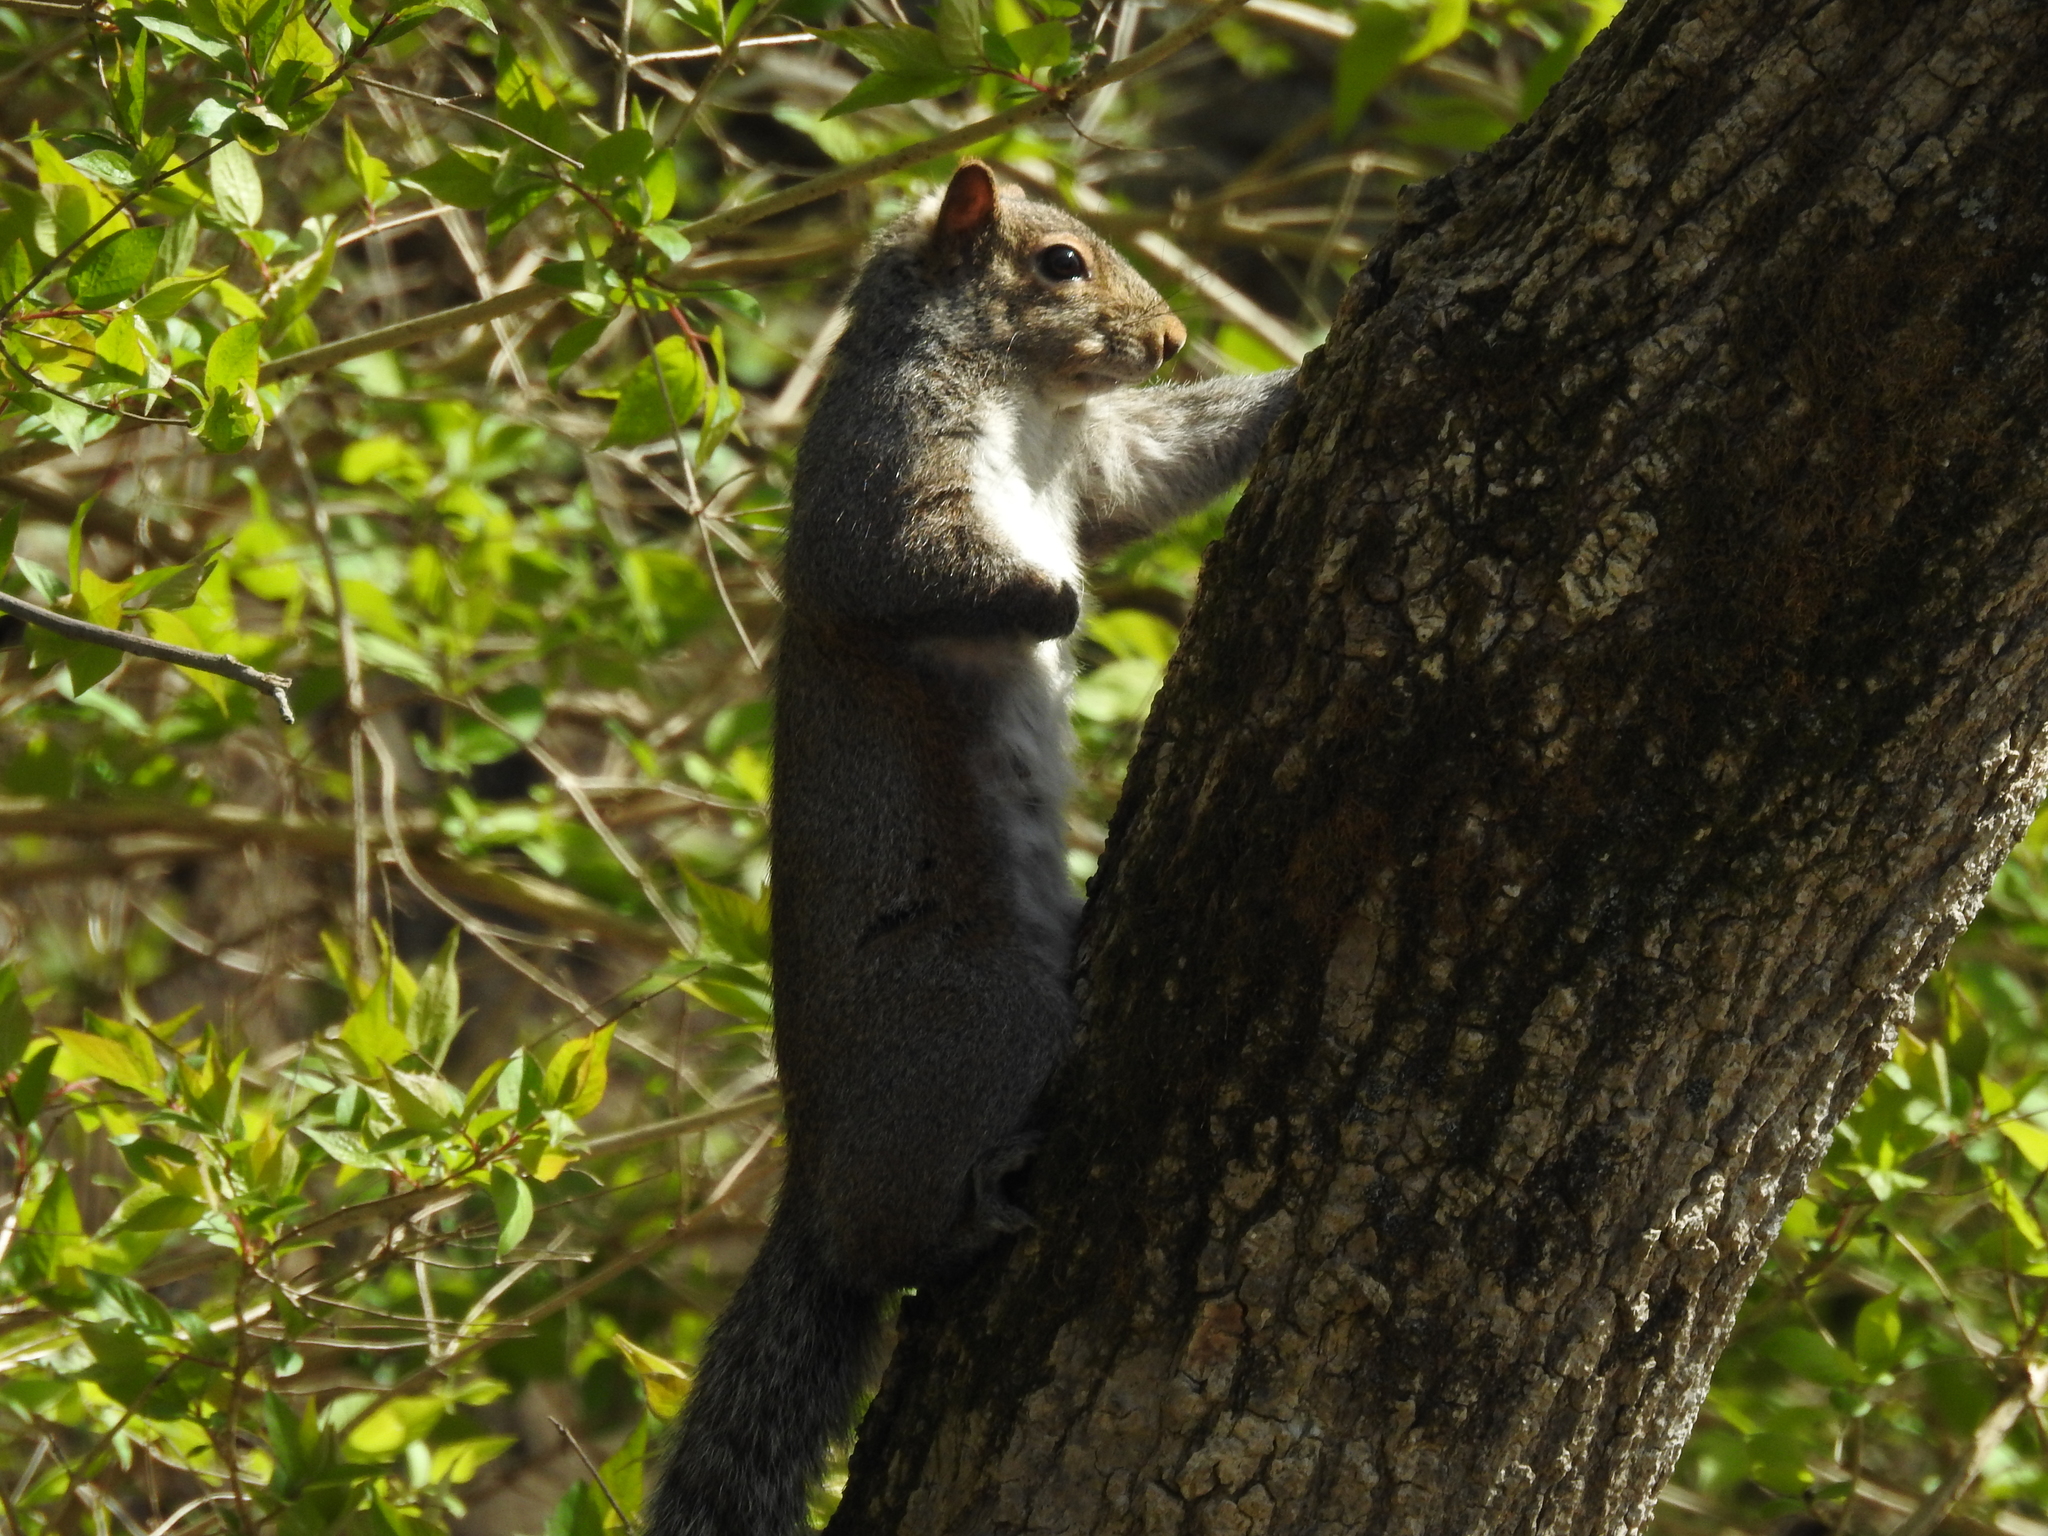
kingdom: Animalia
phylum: Chordata
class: Mammalia
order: Rodentia
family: Sciuridae
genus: Sciurus
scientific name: Sciurus carolinensis
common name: Eastern gray squirrel
